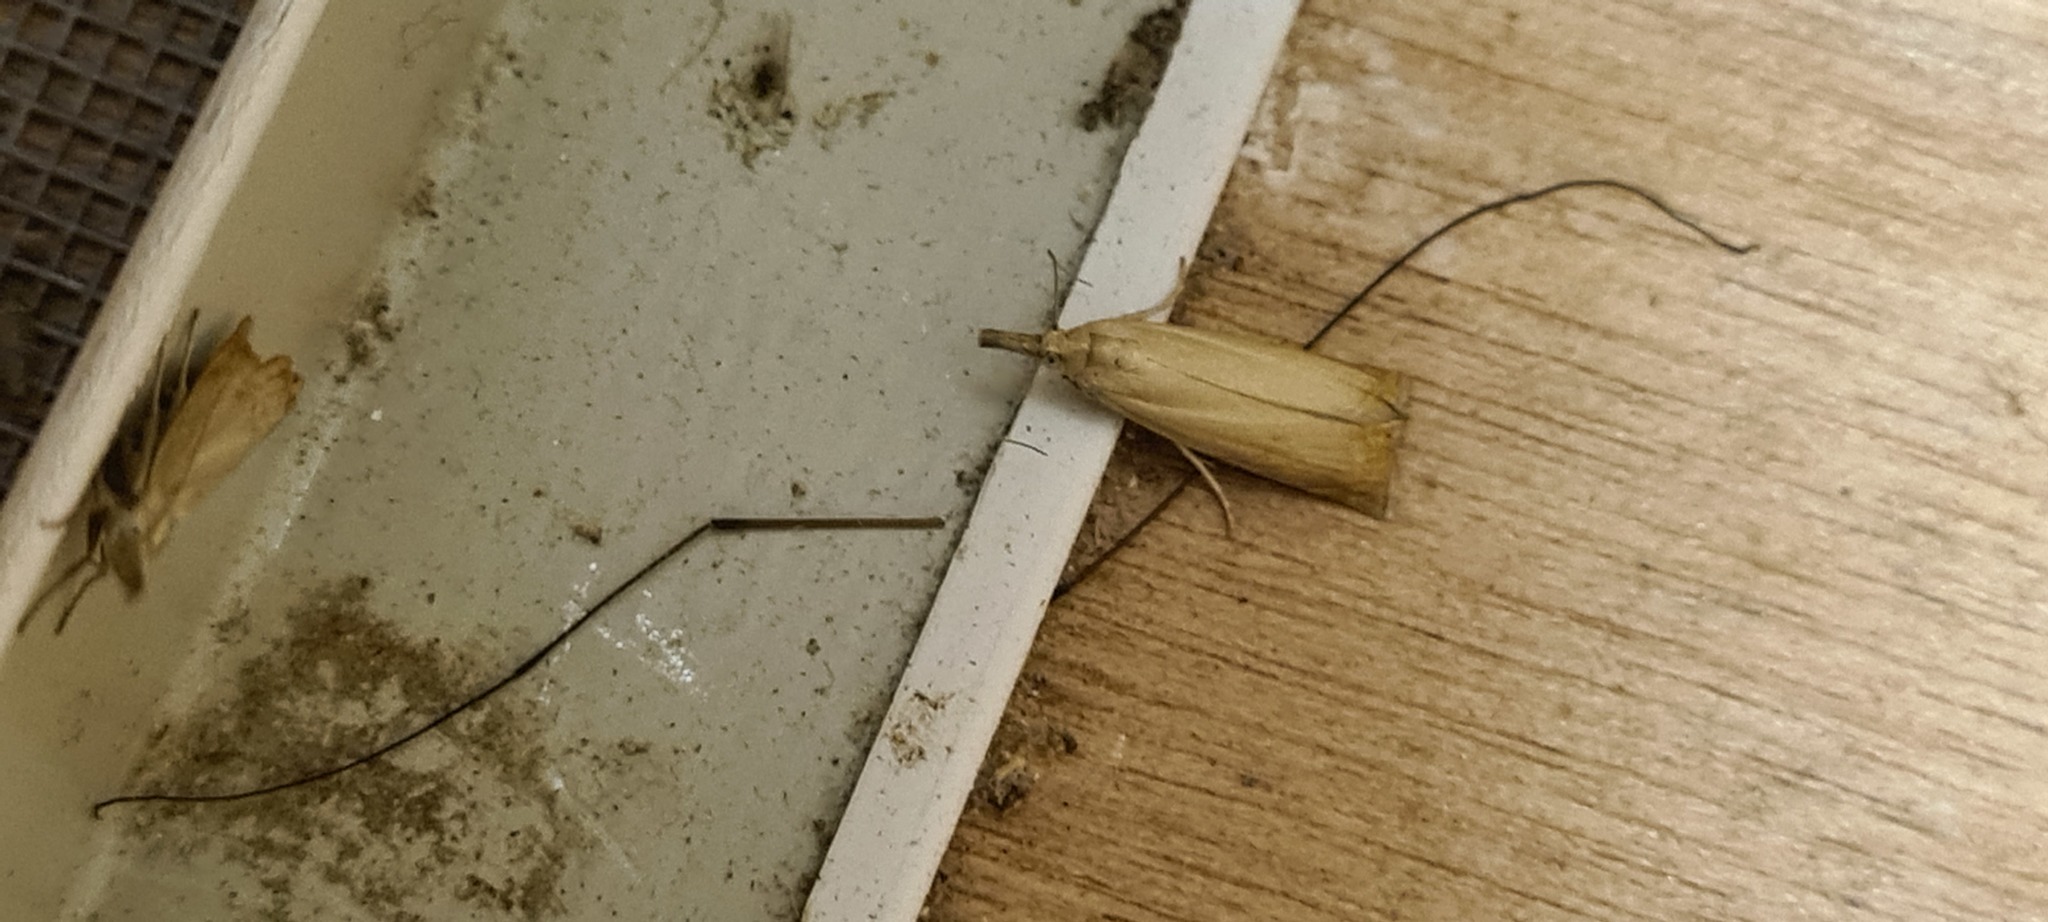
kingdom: Animalia
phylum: Arthropoda
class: Insecta
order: Lepidoptera
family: Crambidae
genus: Chrysoteuchia
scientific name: Chrysoteuchia culmella
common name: Garden grass-veneer
